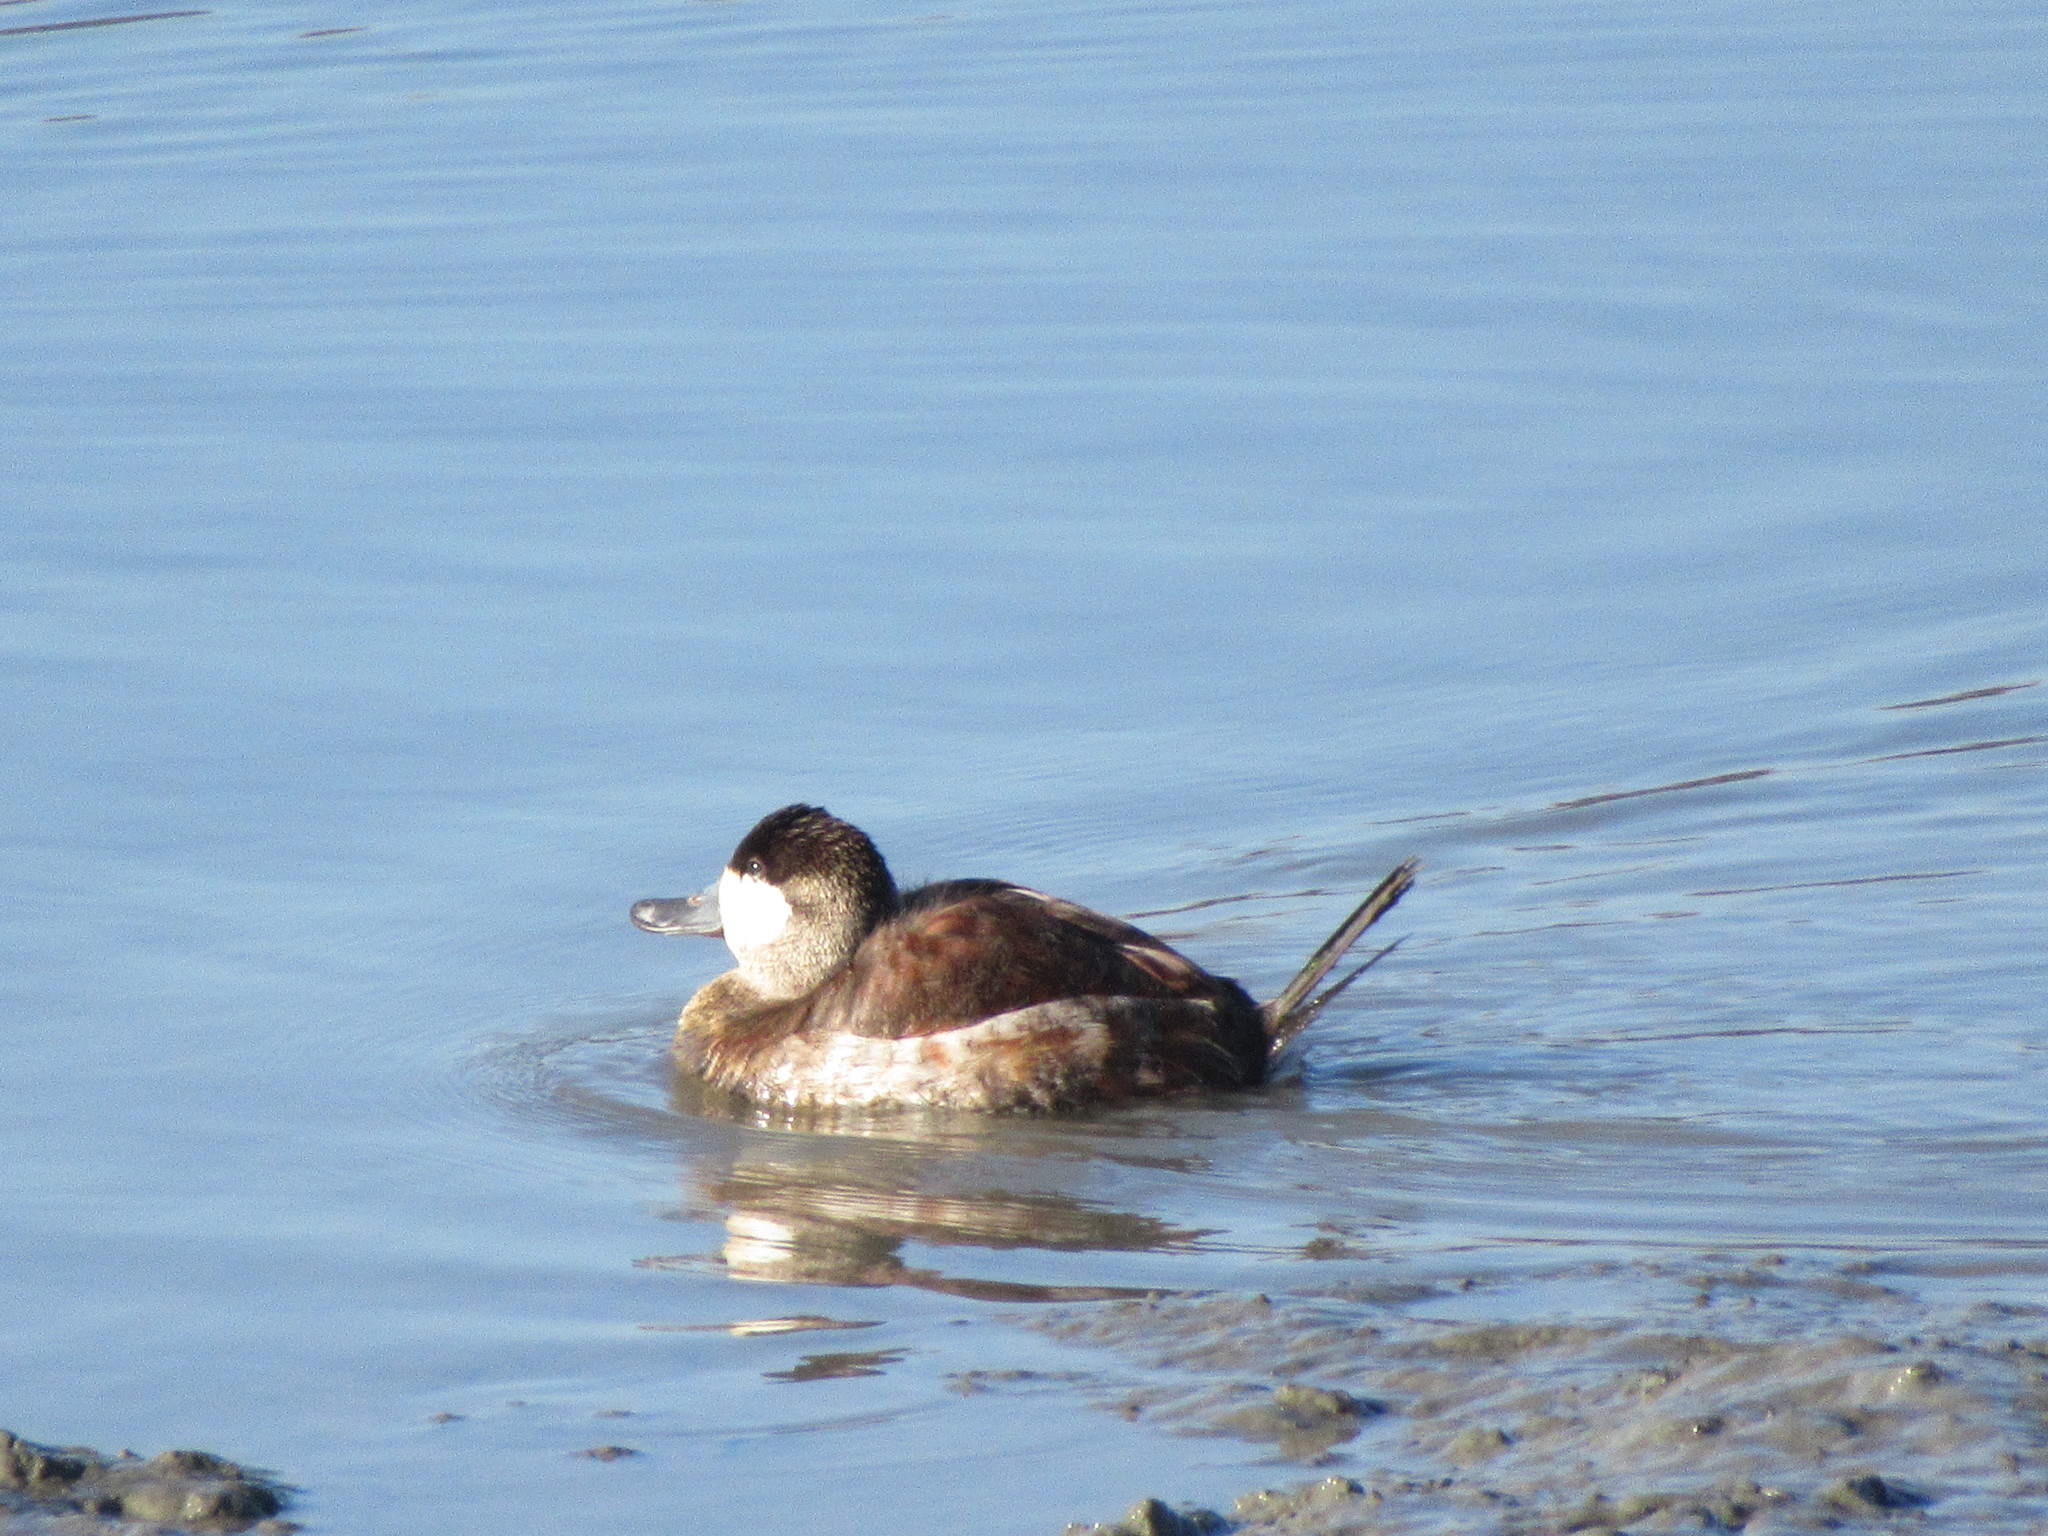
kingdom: Animalia
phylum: Chordata
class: Aves
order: Anseriformes
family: Anatidae
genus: Oxyura
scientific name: Oxyura jamaicensis
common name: Ruddy duck
